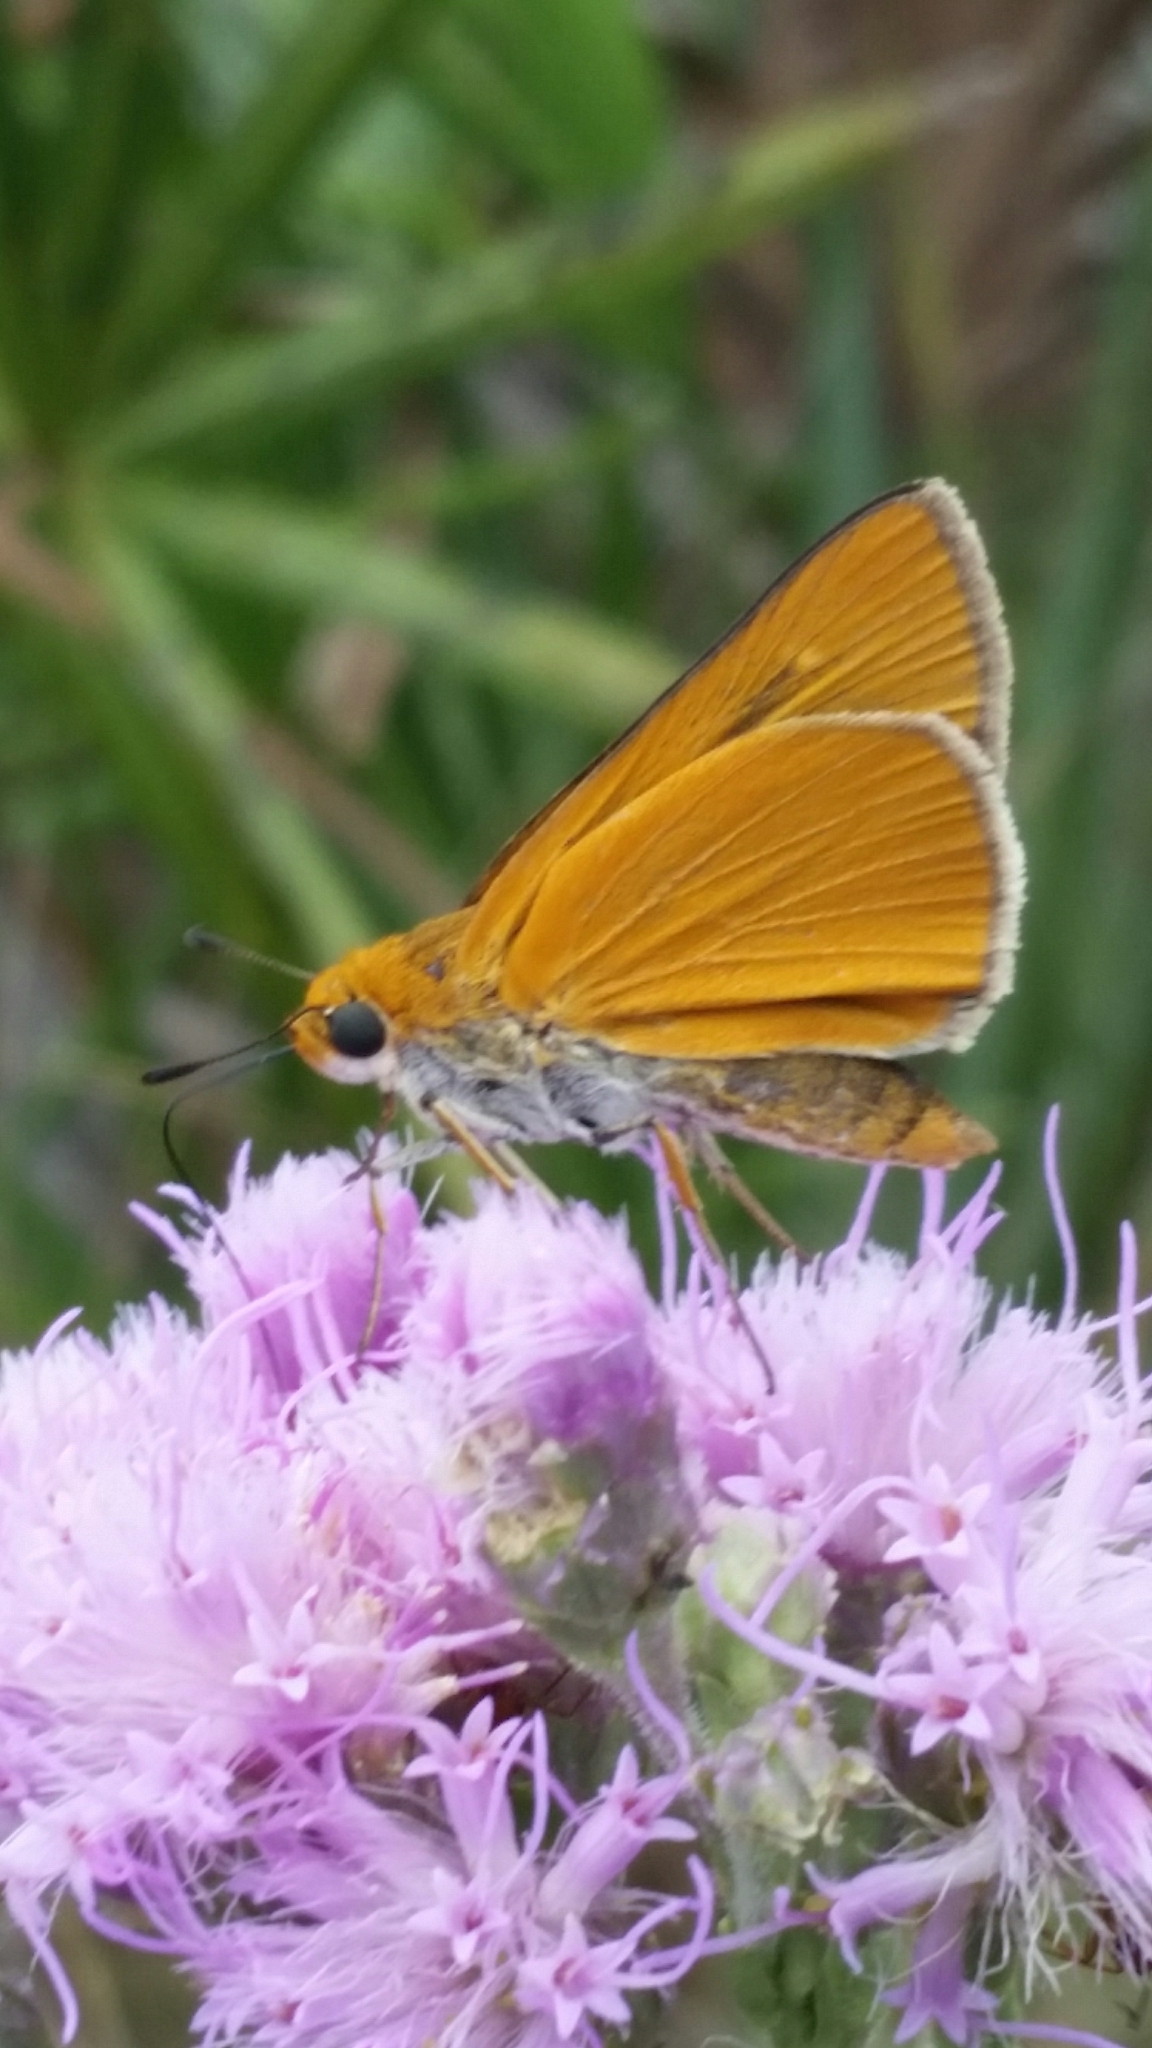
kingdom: Animalia
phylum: Arthropoda
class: Insecta
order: Lepidoptera
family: Hesperiidae
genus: Euphyes
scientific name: Euphyes arpa
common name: Palmetto skipper
